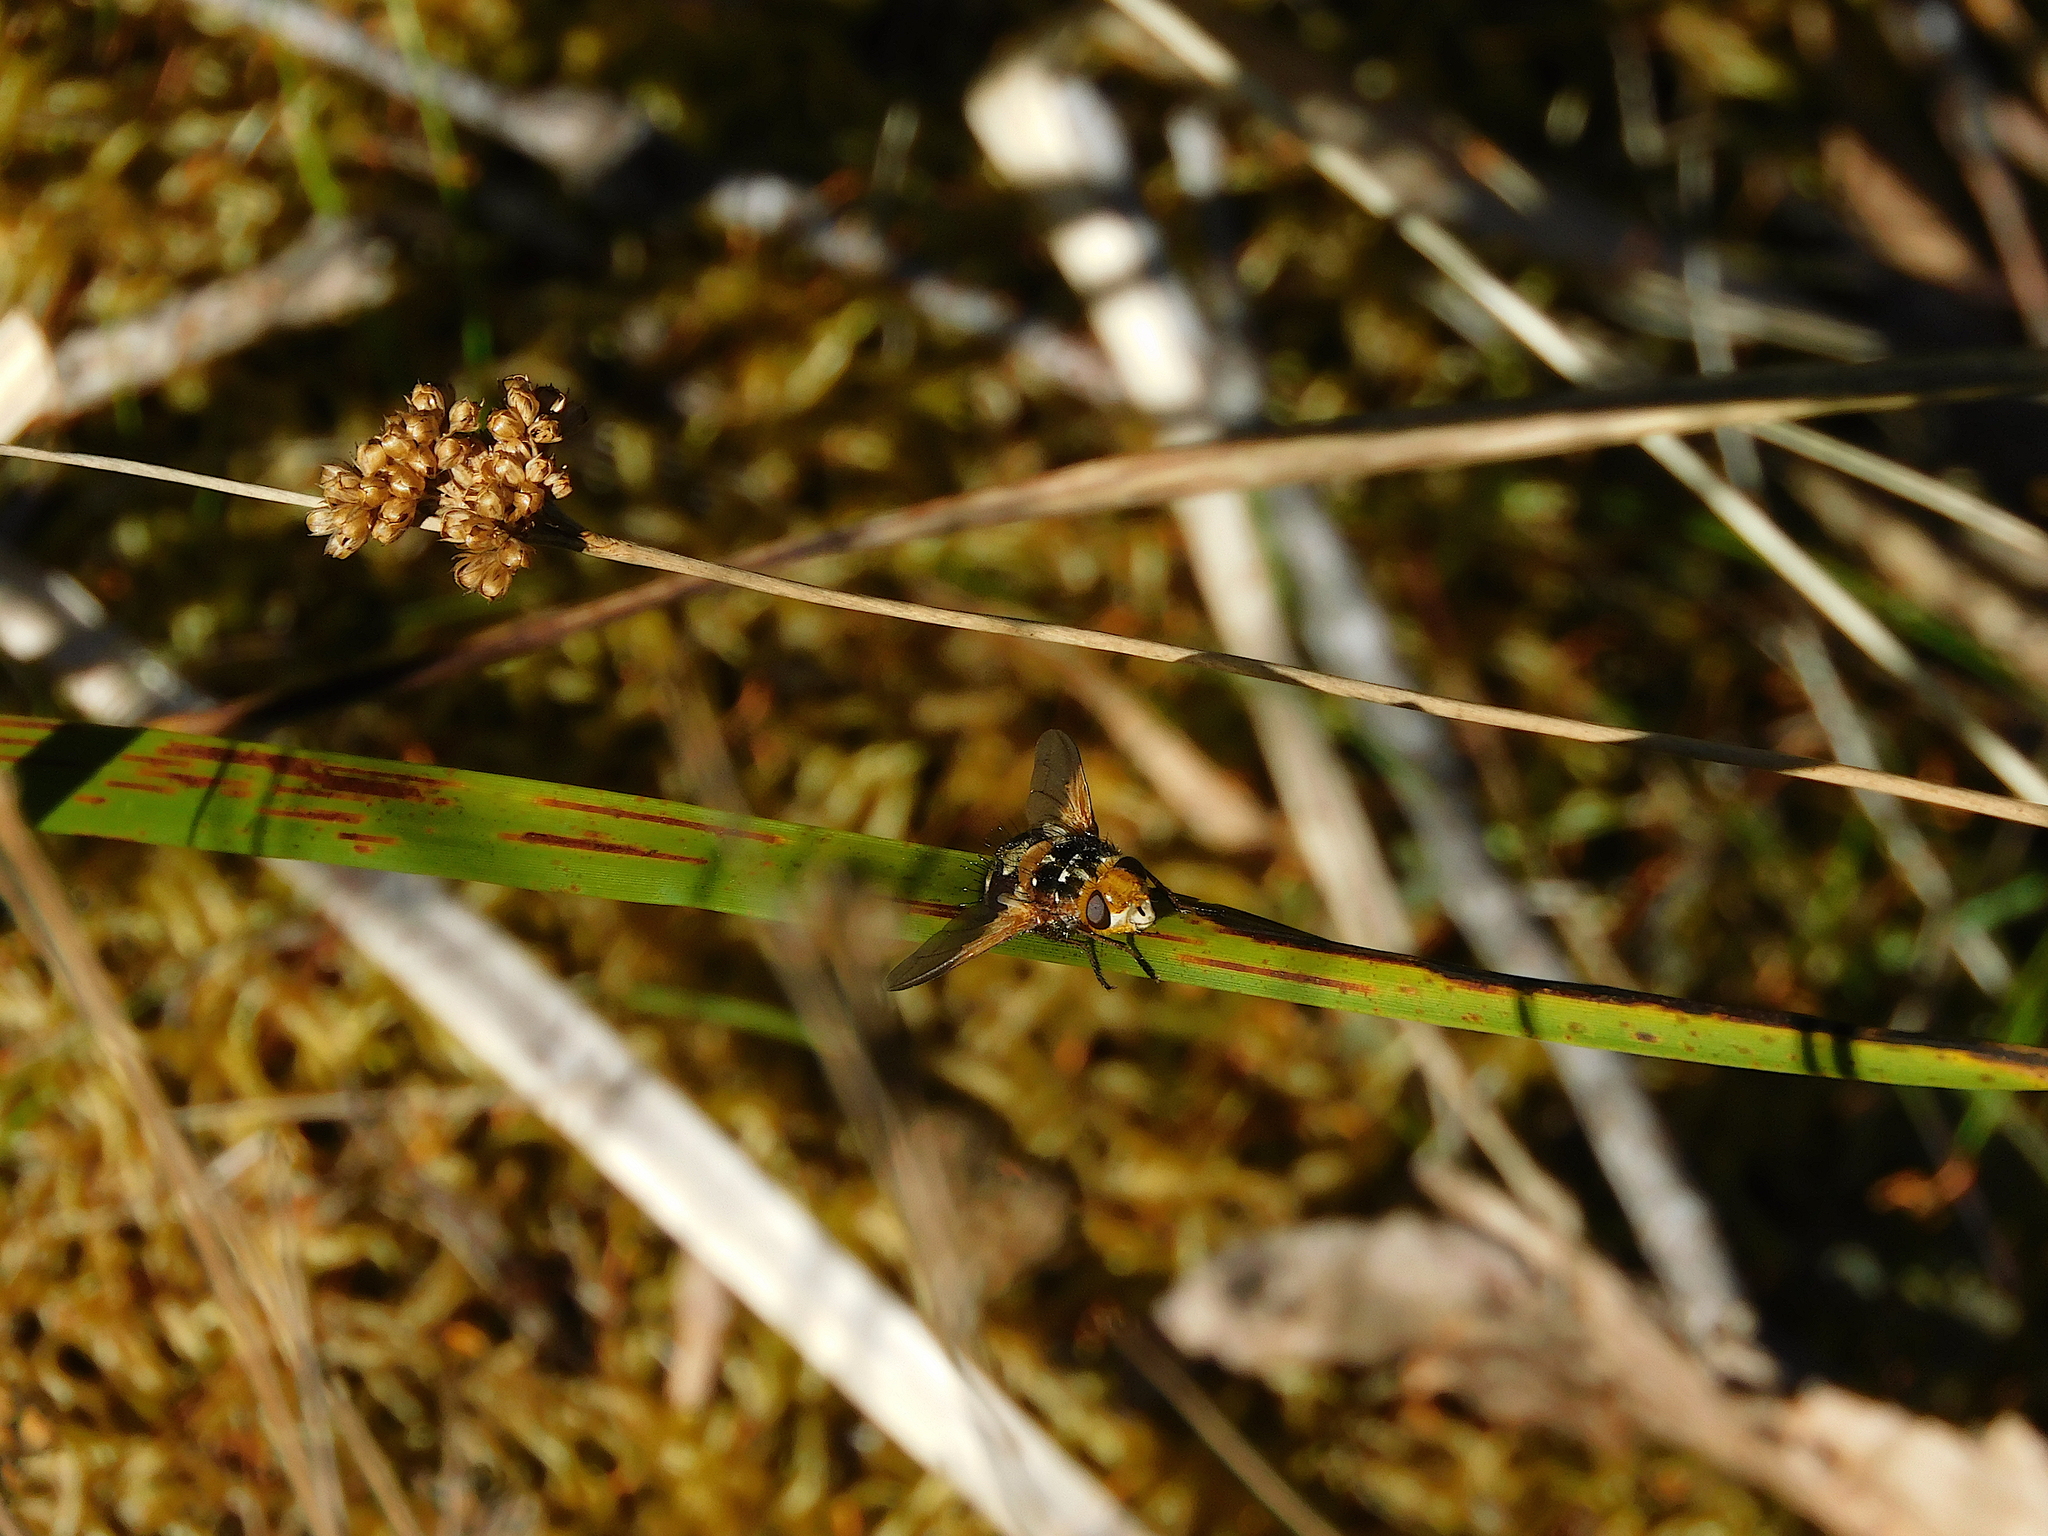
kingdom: Animalia
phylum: Arthropoda
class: Insecta
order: Diptera
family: Tachinidae
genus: Microtropesa
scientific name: Microtropesa nigricornis
